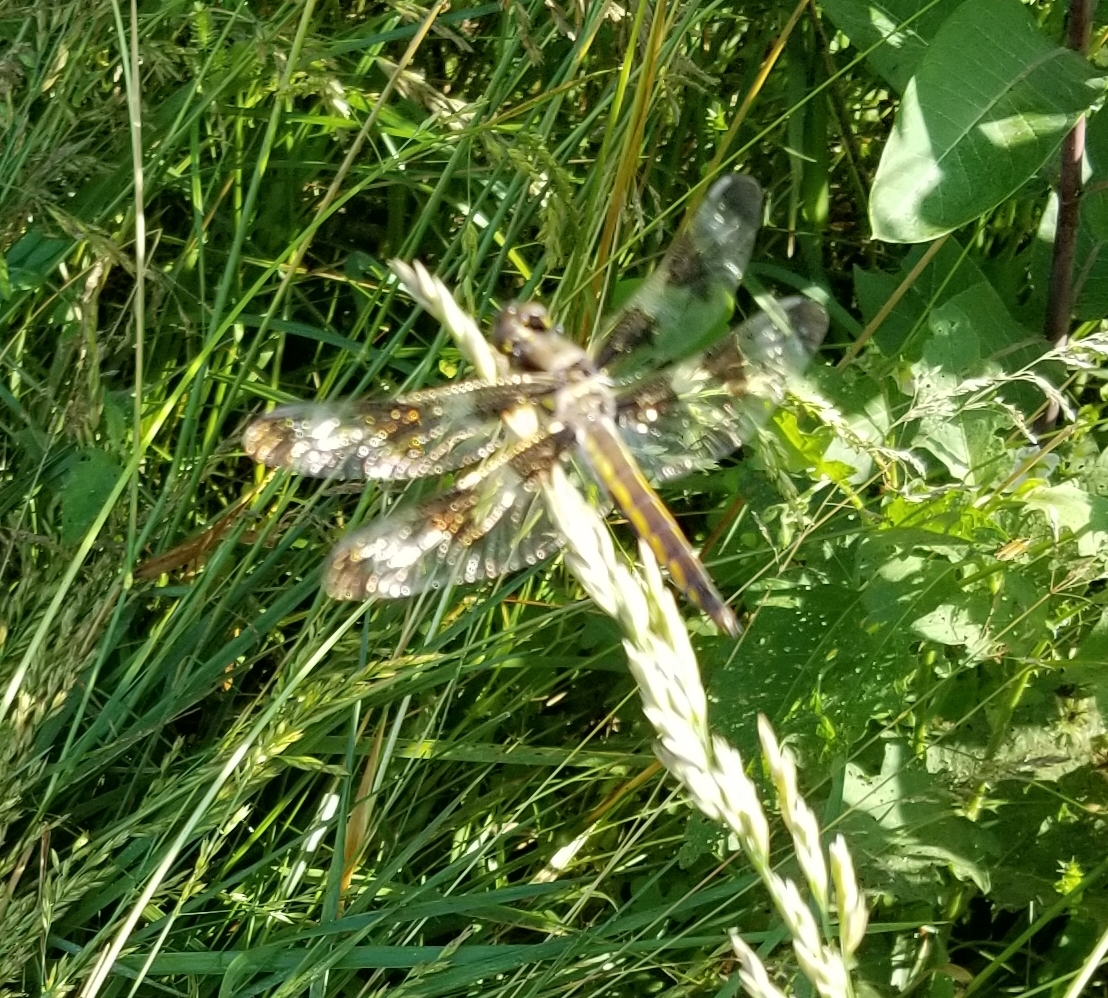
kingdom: Animalia
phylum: Arthropoda
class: Insecta
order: Odonata
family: Libellulidae
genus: Libellula
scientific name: Libellula semifasciata
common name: Painted skimmer
